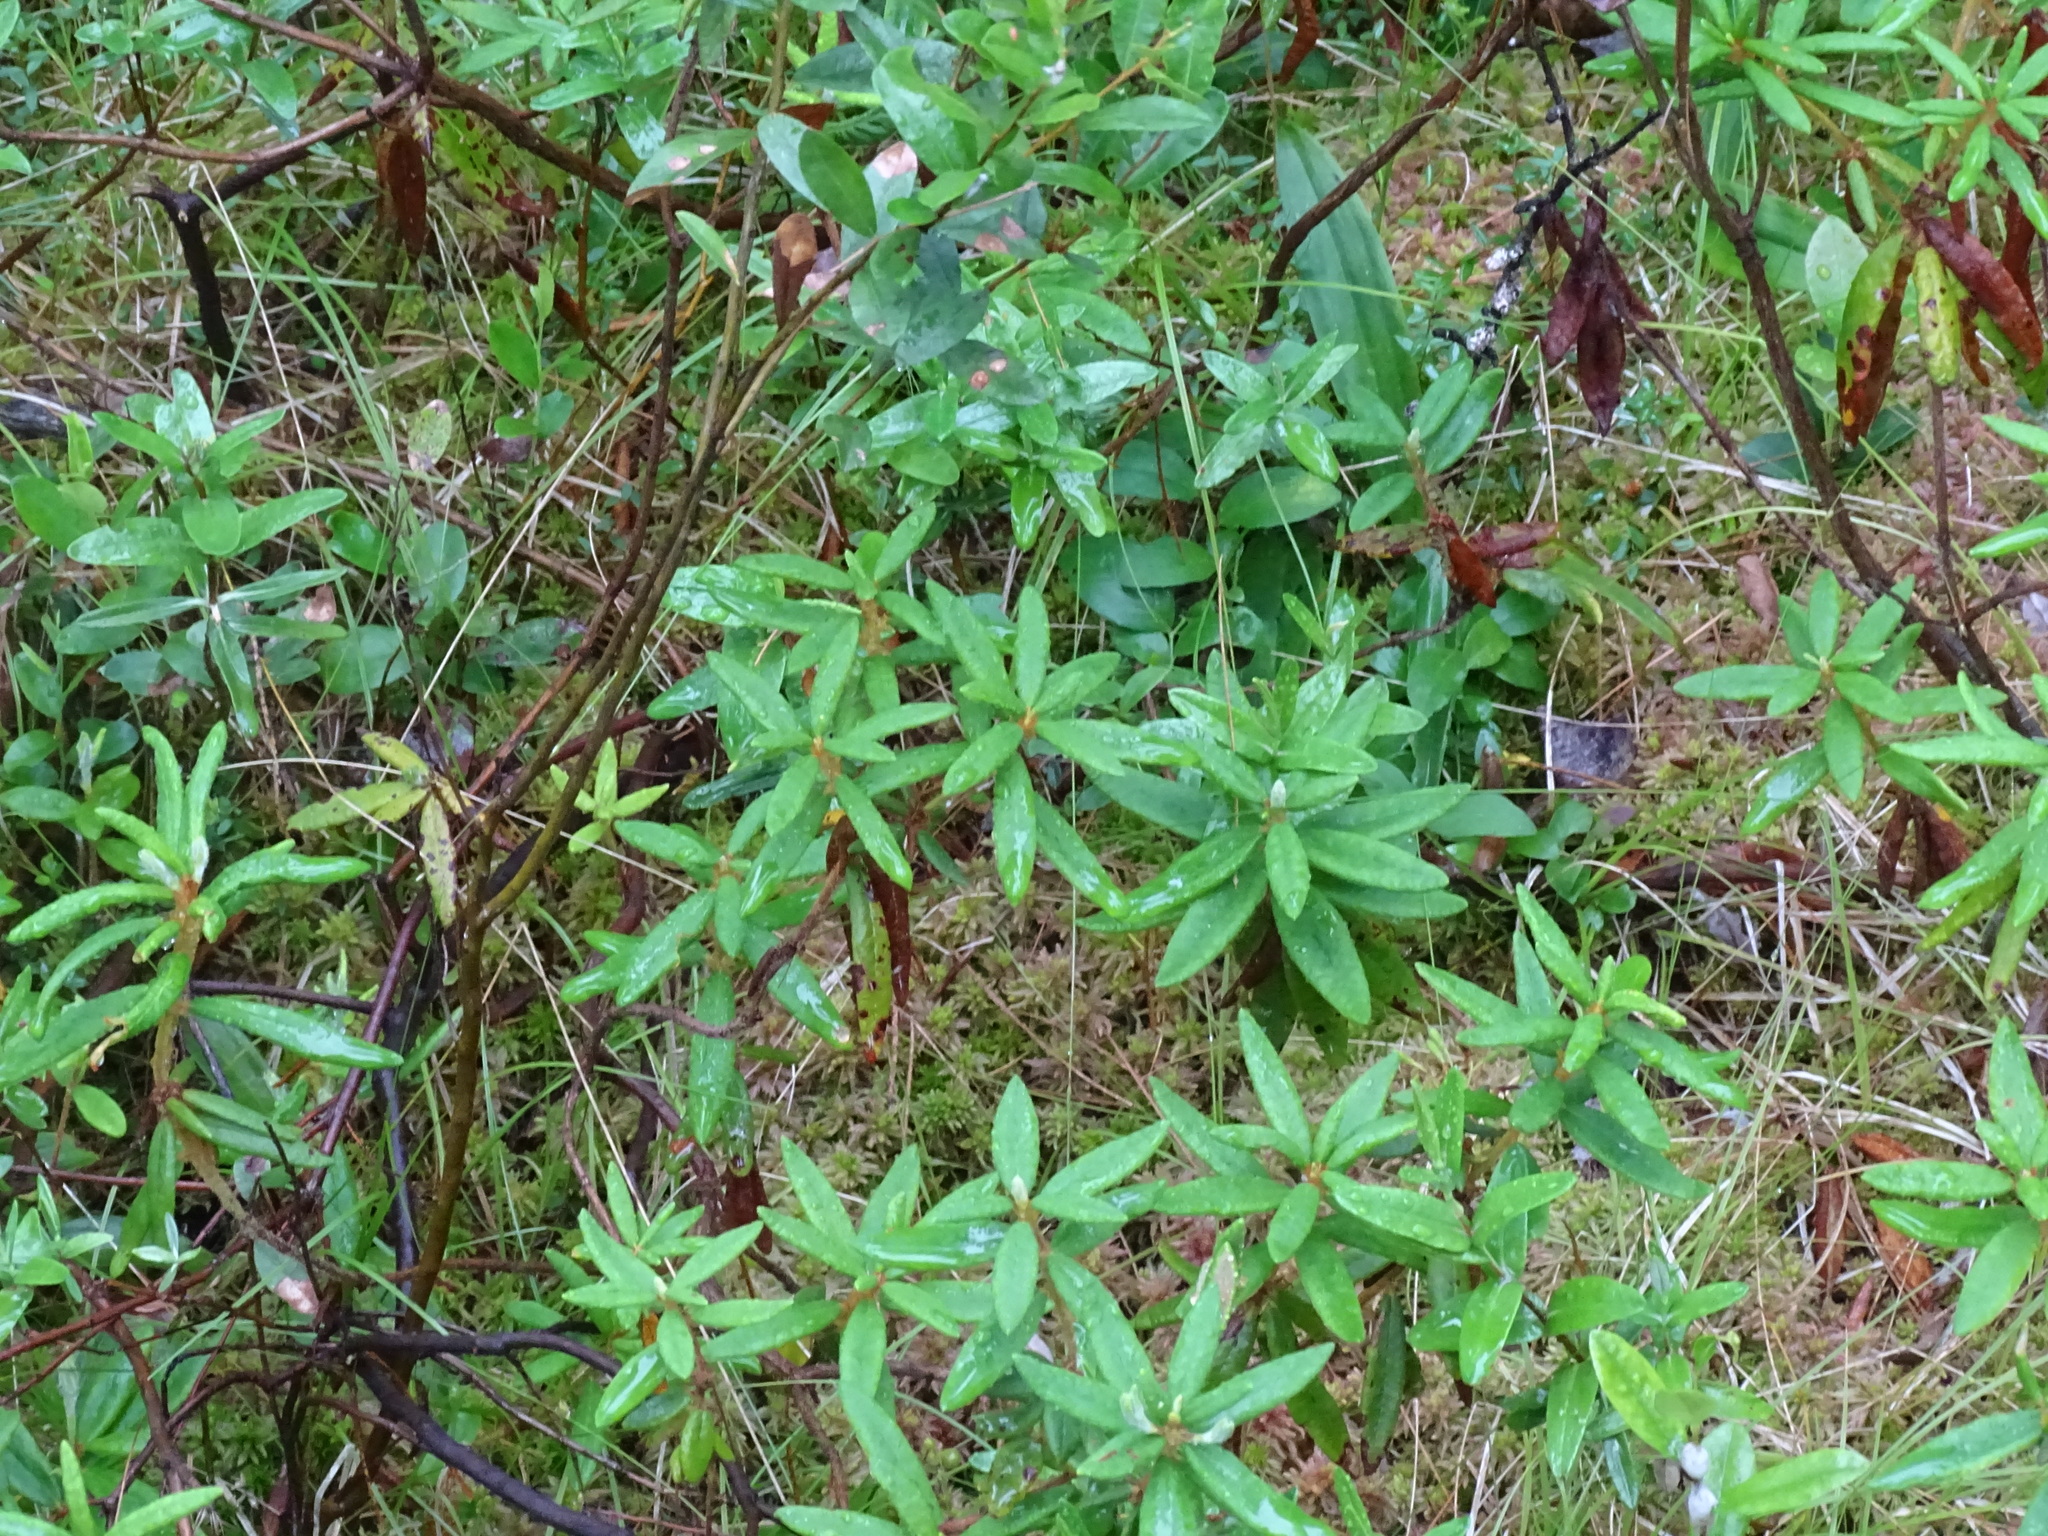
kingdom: Plantae
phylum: Tracheophyta
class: Magnoliopsida
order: Ericales
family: Ericaceae
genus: Rhododendron
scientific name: Rhododendron groenlandicum
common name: Bog labrador tea
